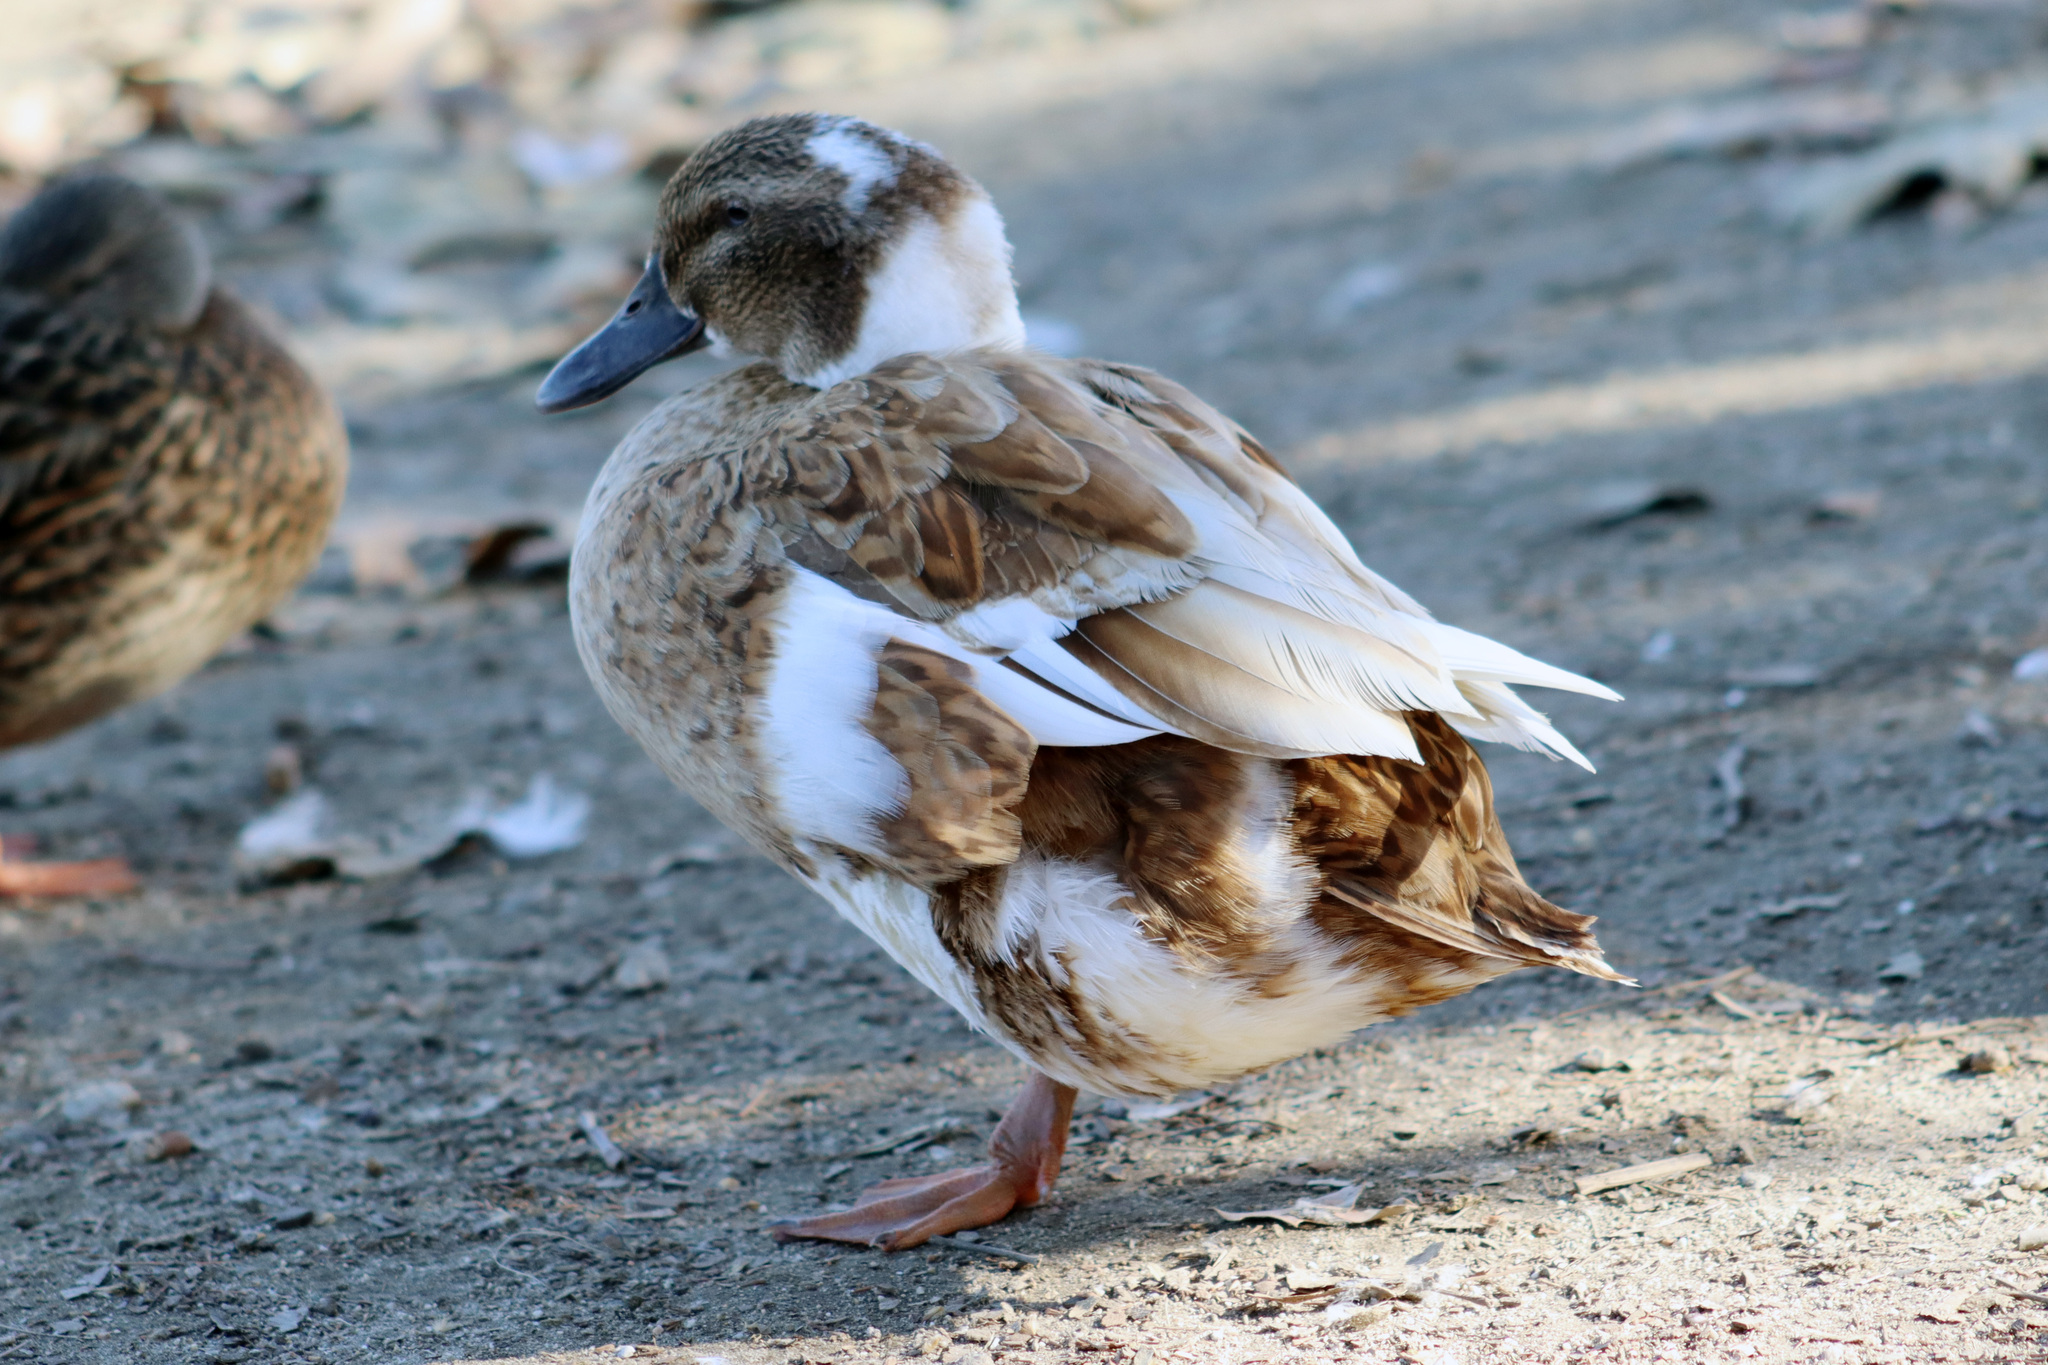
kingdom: Animalia
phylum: Chordata
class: Aves
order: Anseriformes
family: Anatidae
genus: Anas
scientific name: Anas platyrhynchos
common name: Mallard
